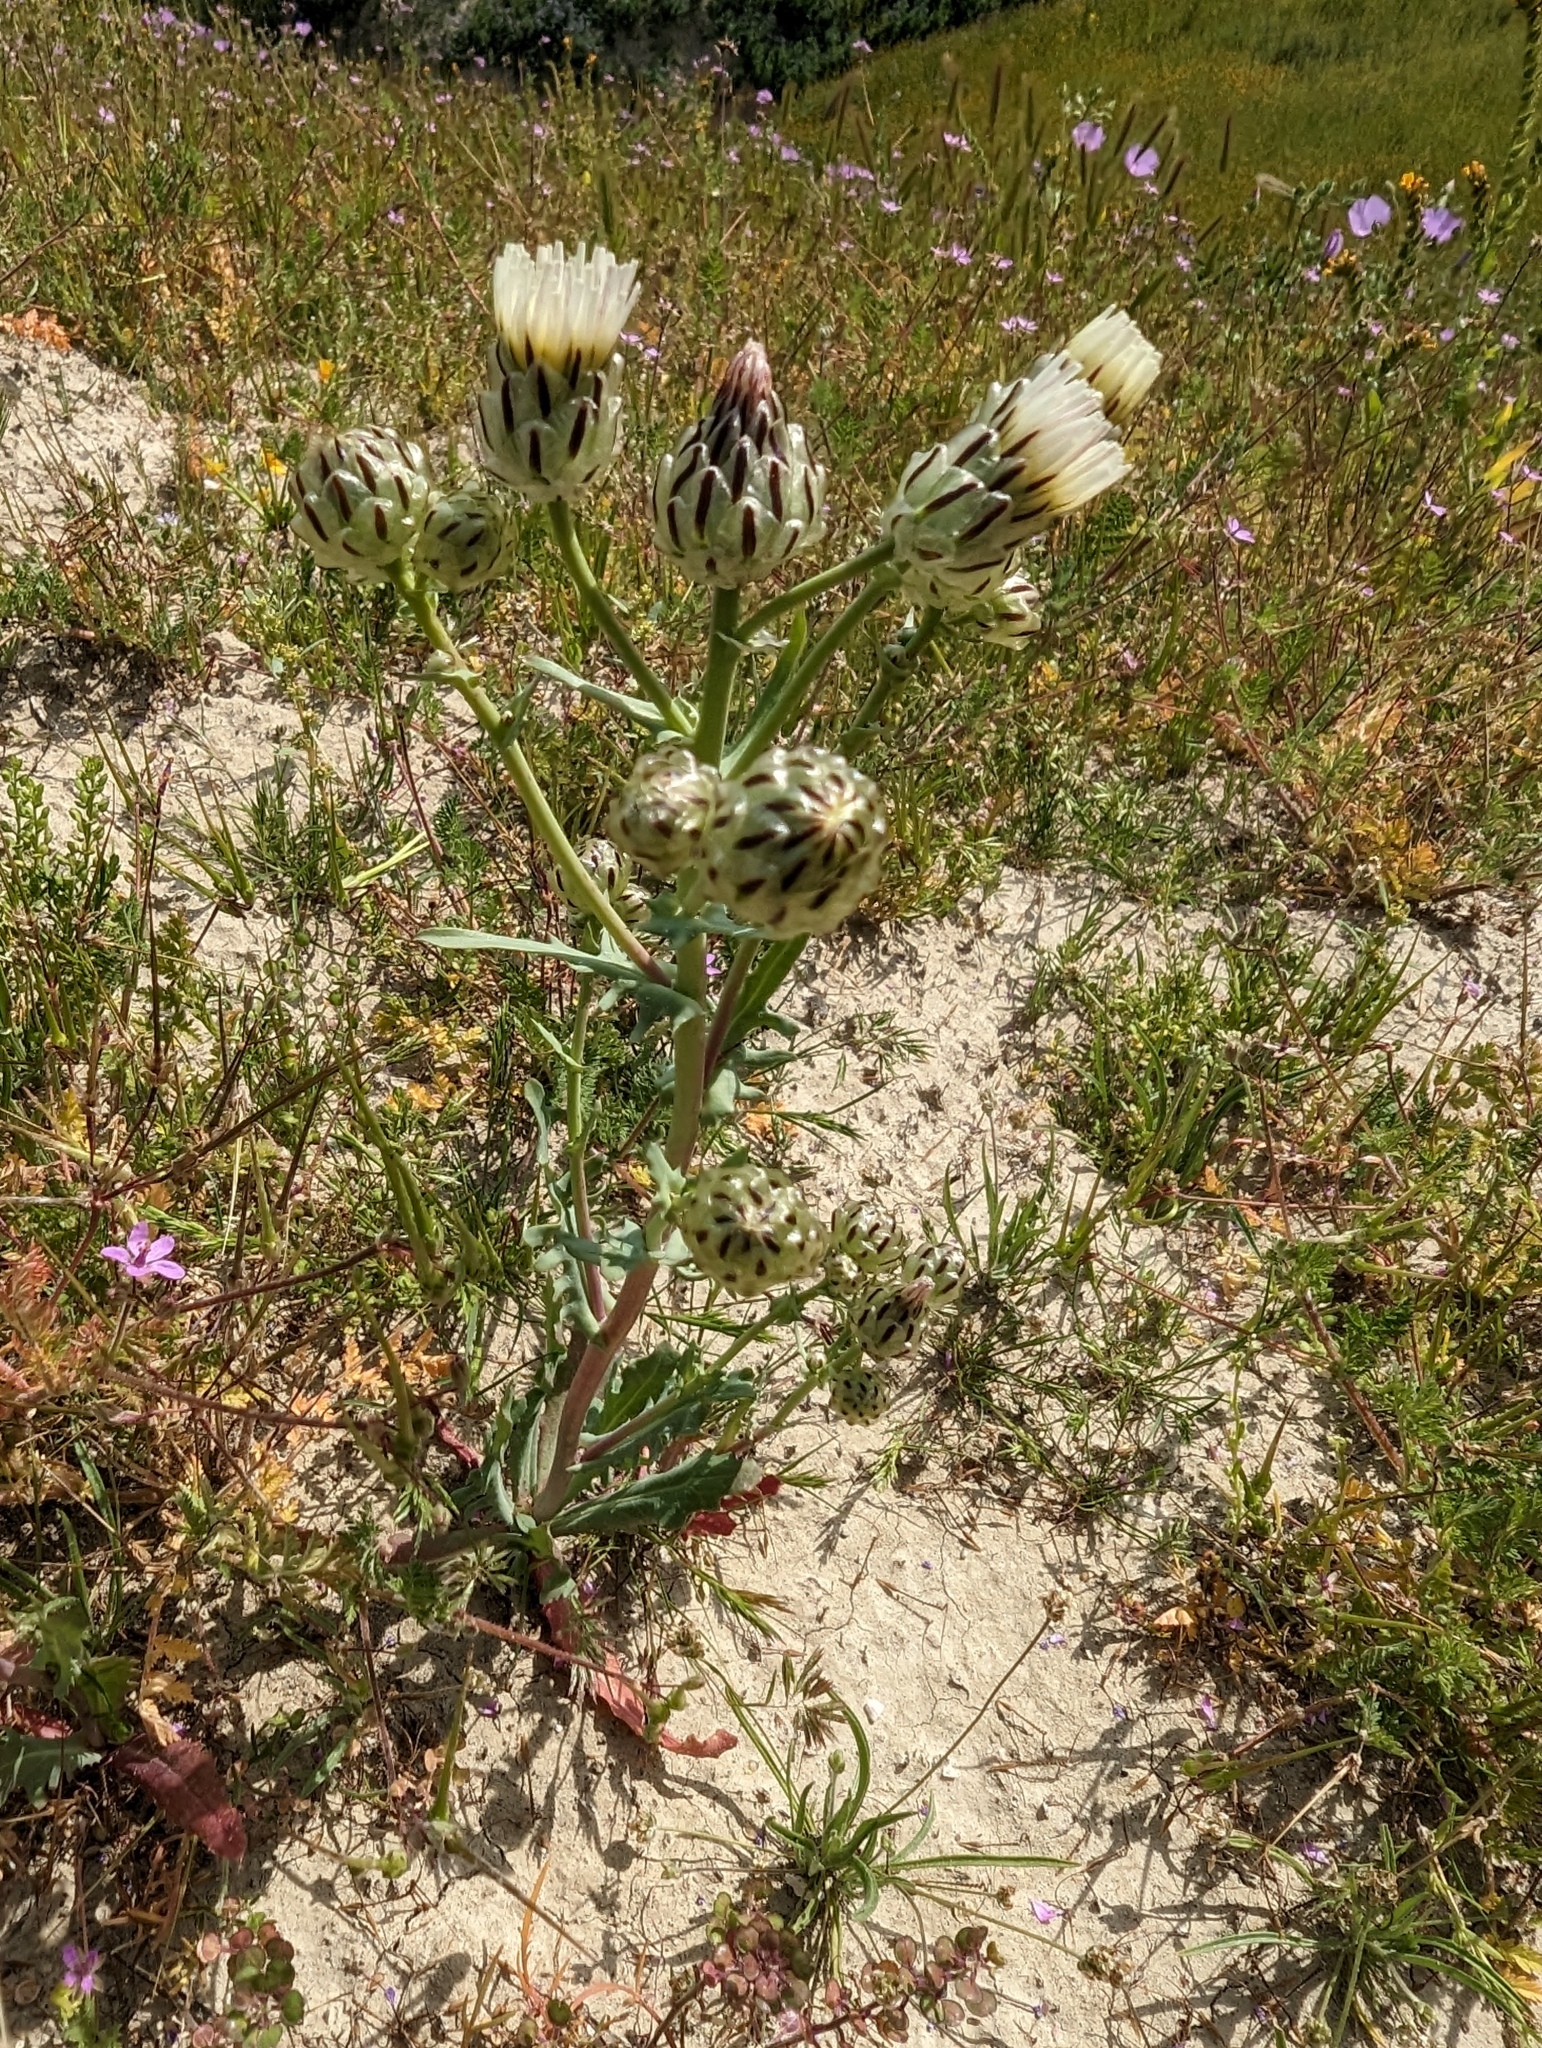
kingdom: Plantae
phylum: Tracheophyta
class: Magnoliopsida
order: Asterales
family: Asteraceae
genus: Malacothrix
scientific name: Malacothrix coulteri
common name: Snake's-head
